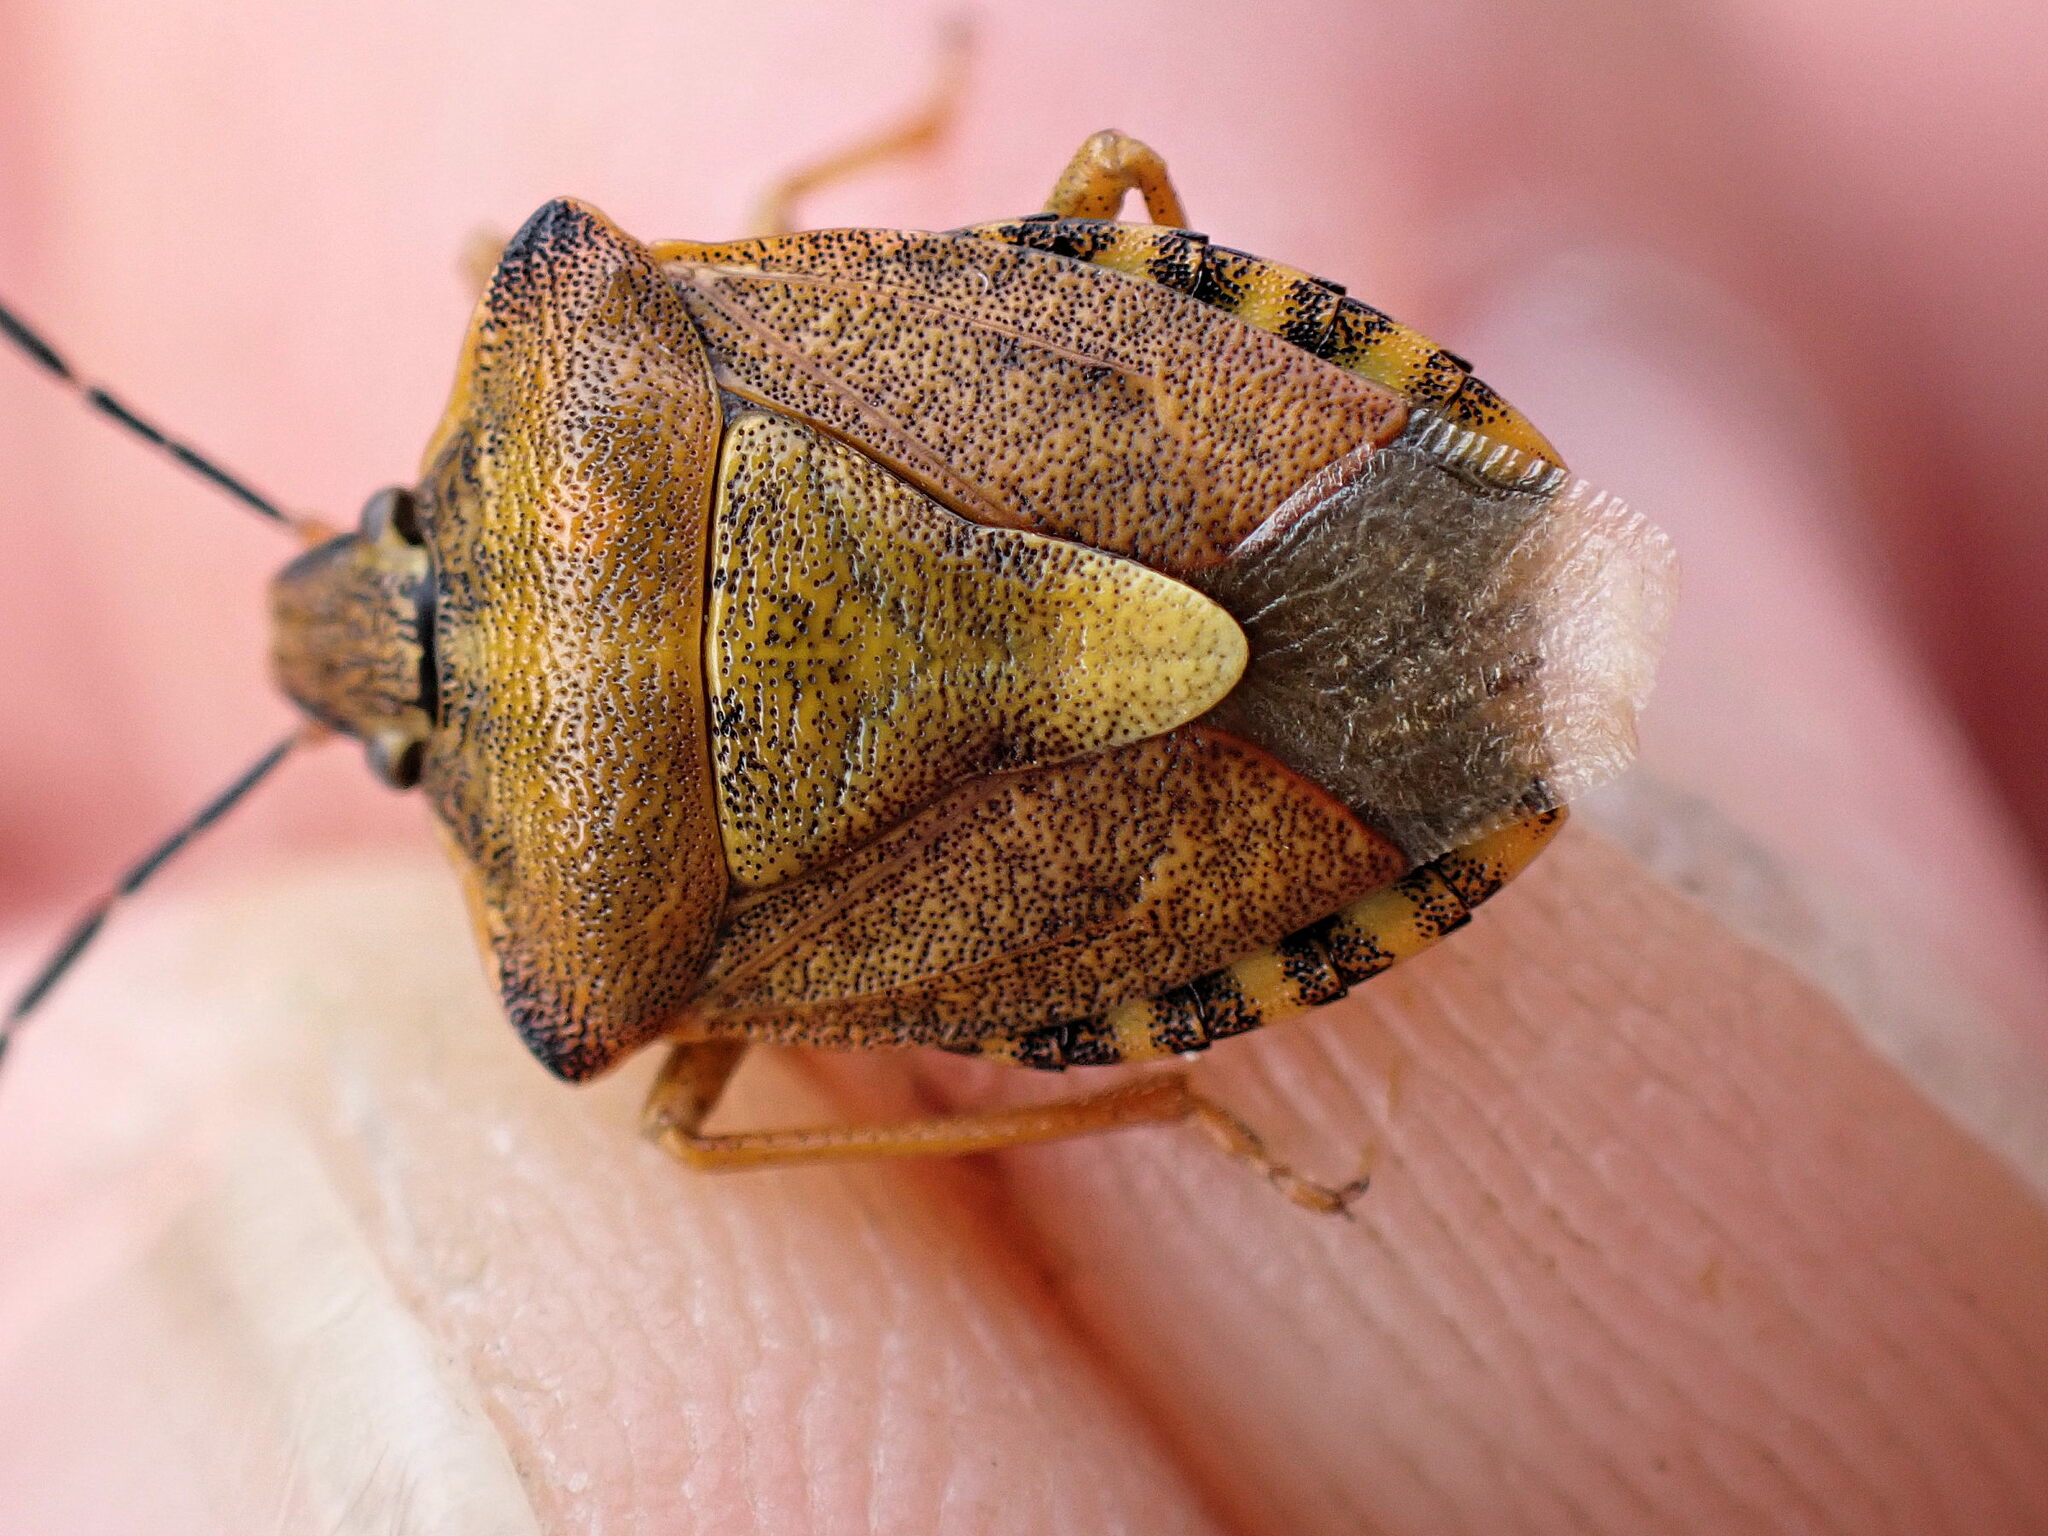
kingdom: Animalia
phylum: Arthropoda
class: Insecta
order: Hemiptera
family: Pentatomidae
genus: Carpocoris
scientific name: Carpocoris purpureipennis
